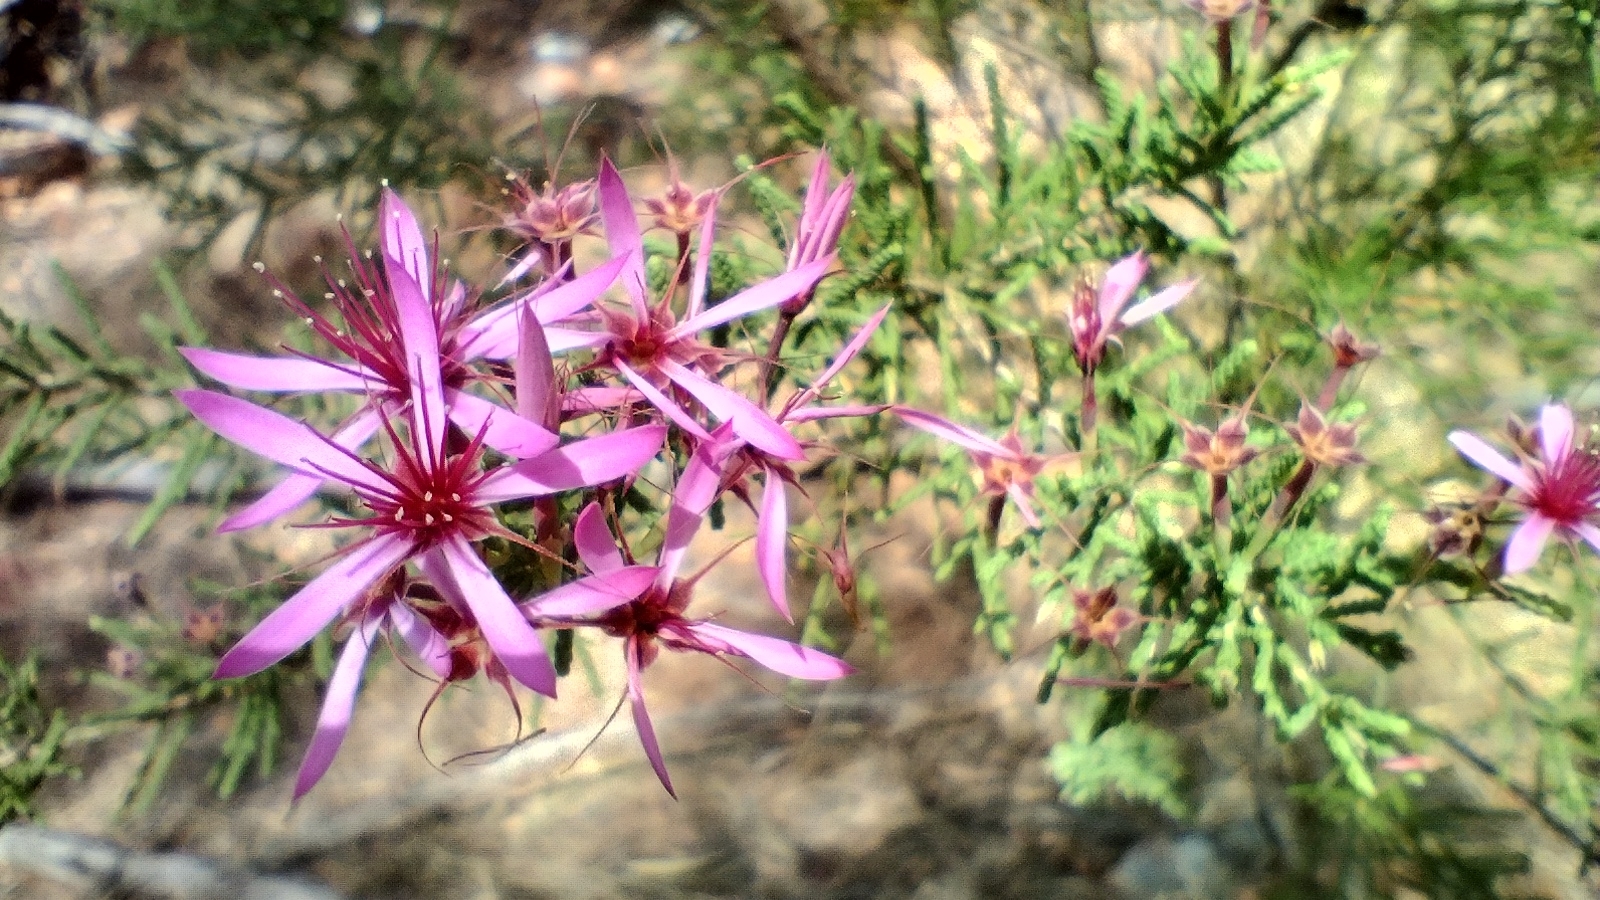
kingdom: Plantae
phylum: Tracheophyta
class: Magnoliopsida
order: Myrtales
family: Myrtaceae
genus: Calytrix
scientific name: Calytrix exstipulata
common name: Kimberley heather
